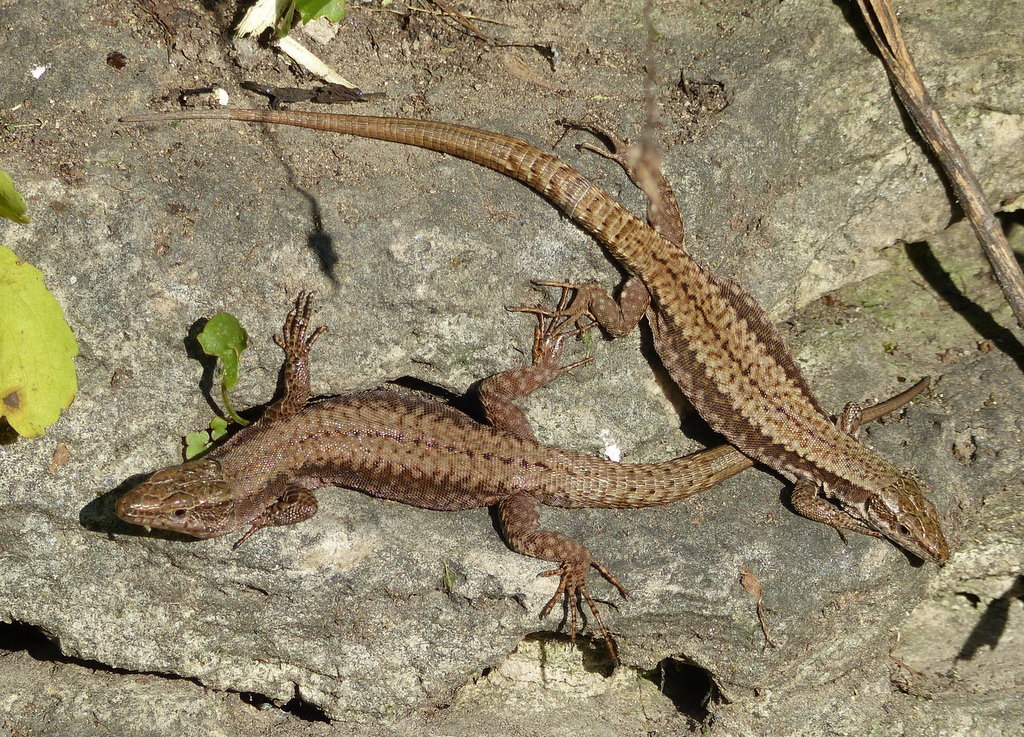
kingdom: Animalia
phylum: Chordata
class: Squamata
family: Lacertidae
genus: Podarcis
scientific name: Podarcis muralis
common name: Common wall lizard
